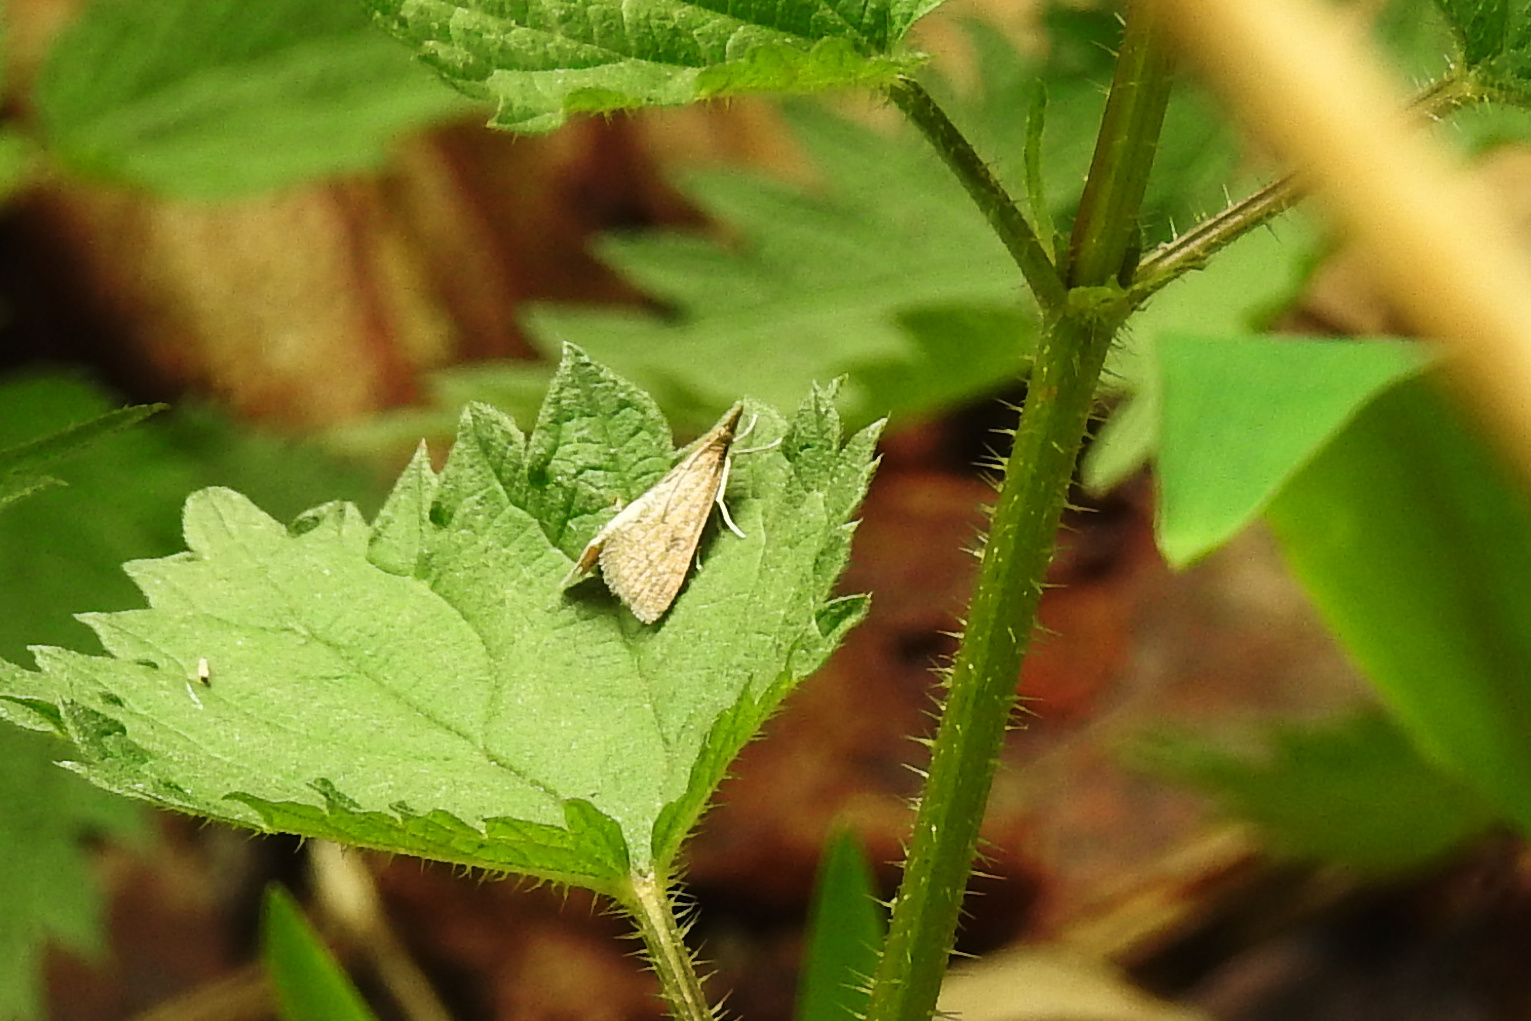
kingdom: Animalia
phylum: Arthropoda
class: Insecta
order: Lepidoptera
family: Crambidae
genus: Udea
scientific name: Udea rubigalis
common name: Celery leaftier moth
